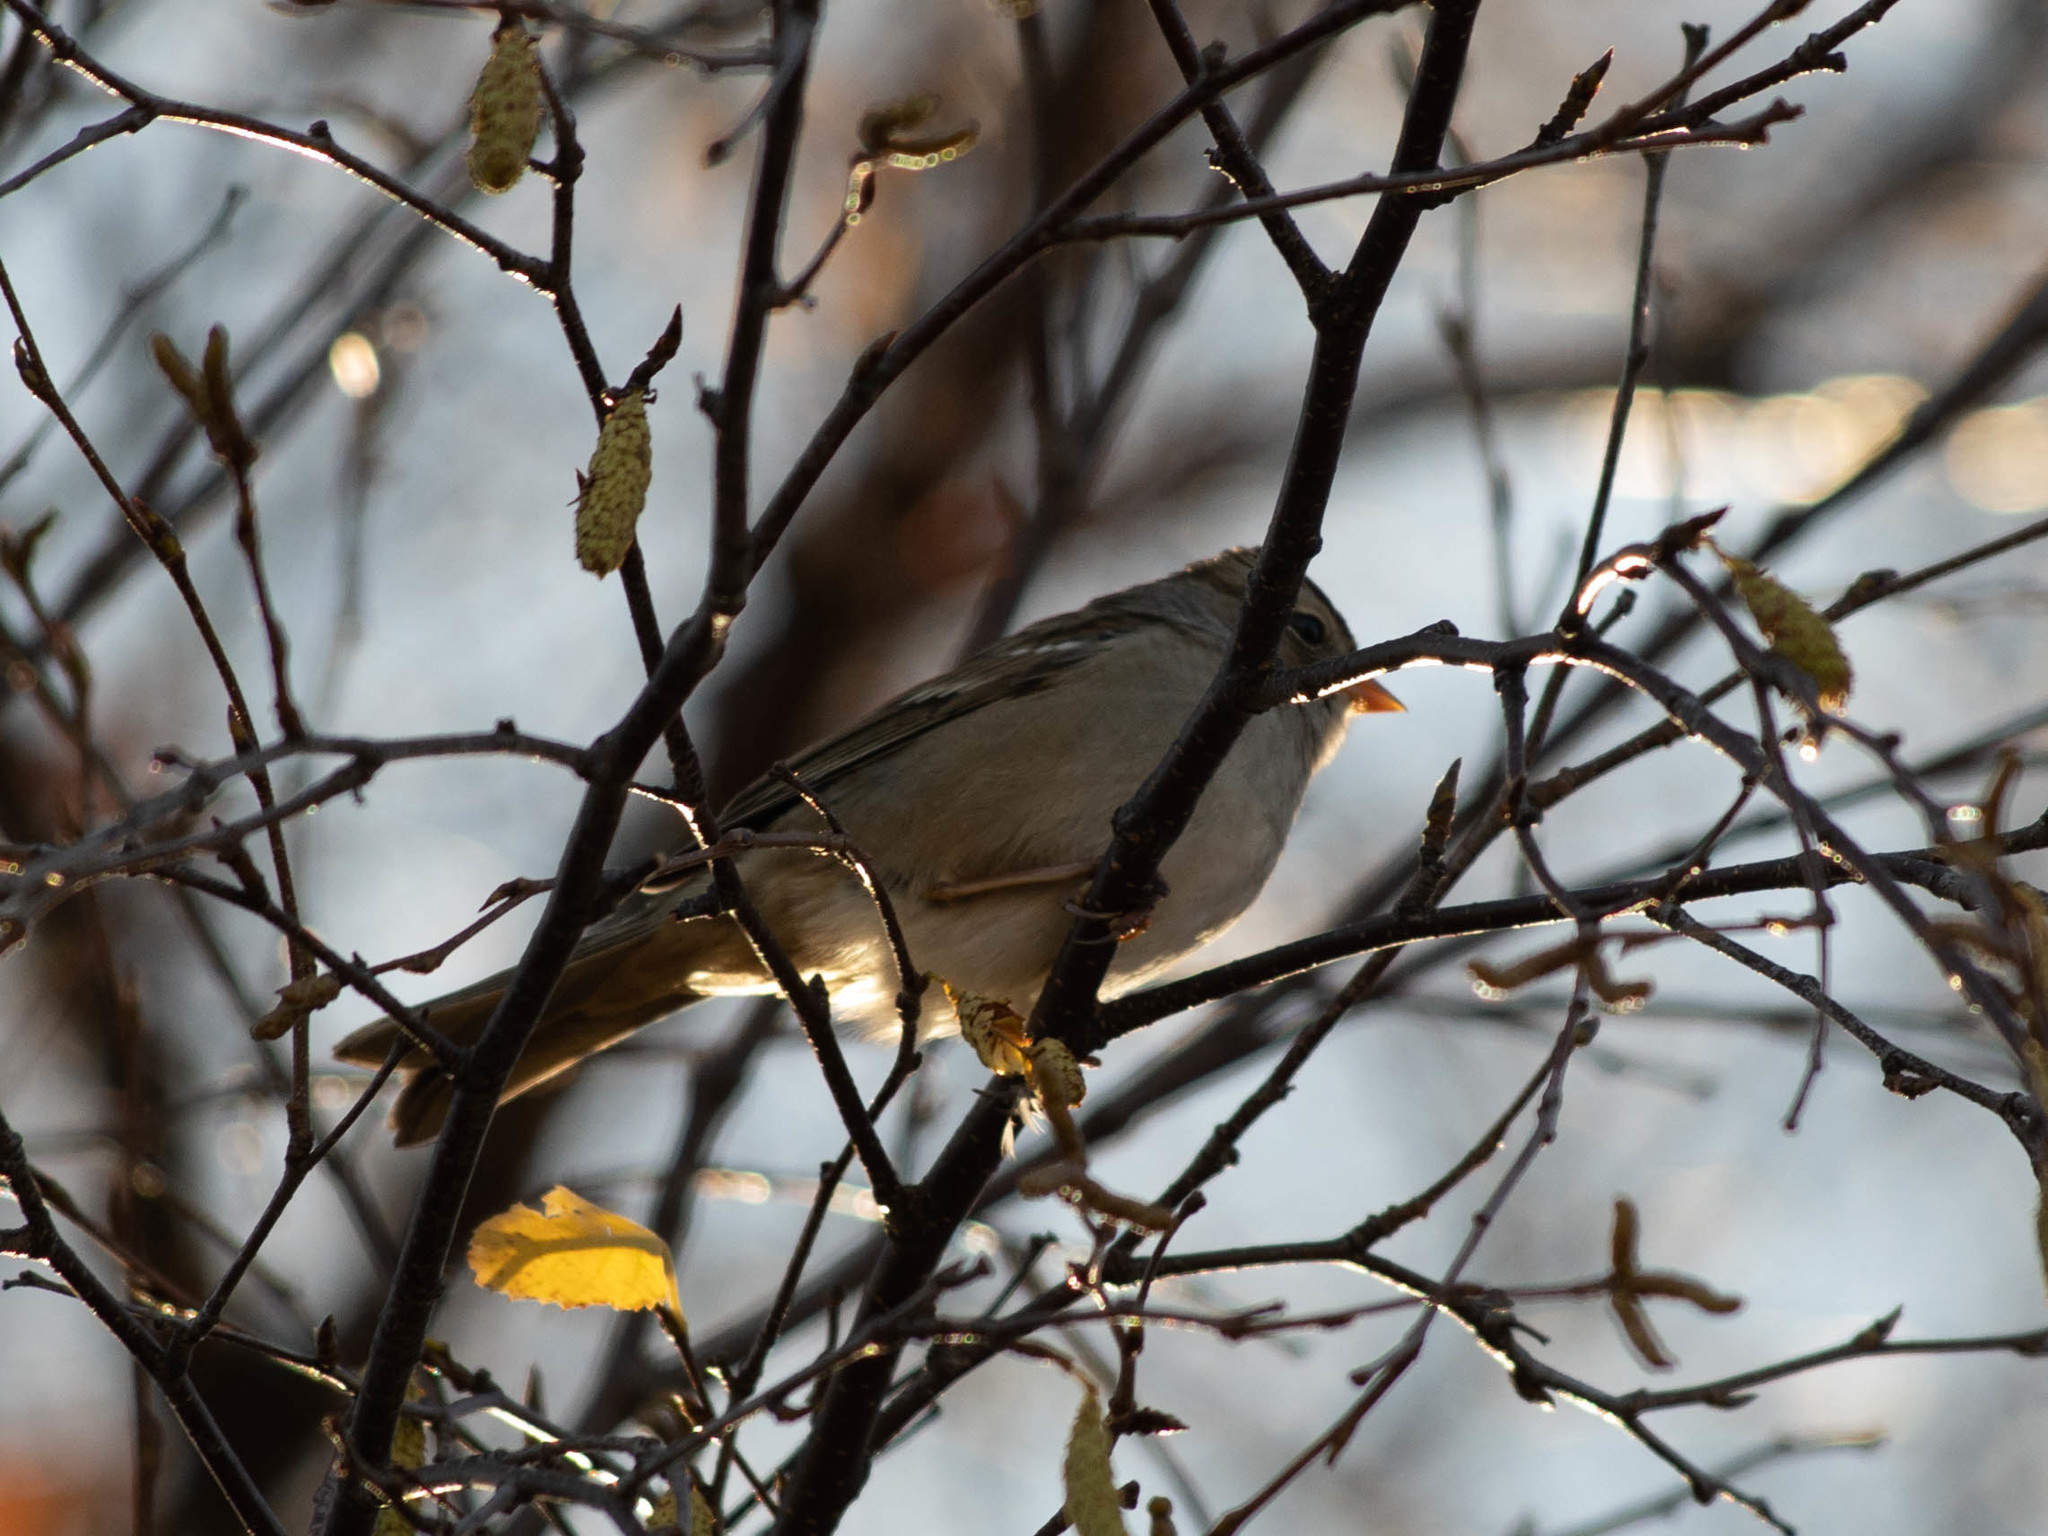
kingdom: Animalia
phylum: Chordata
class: Aves
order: Passeriformes
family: Passerellidae
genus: Zonotrichia
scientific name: Zonotrichia leucophrys
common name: White-crowned sparrow
